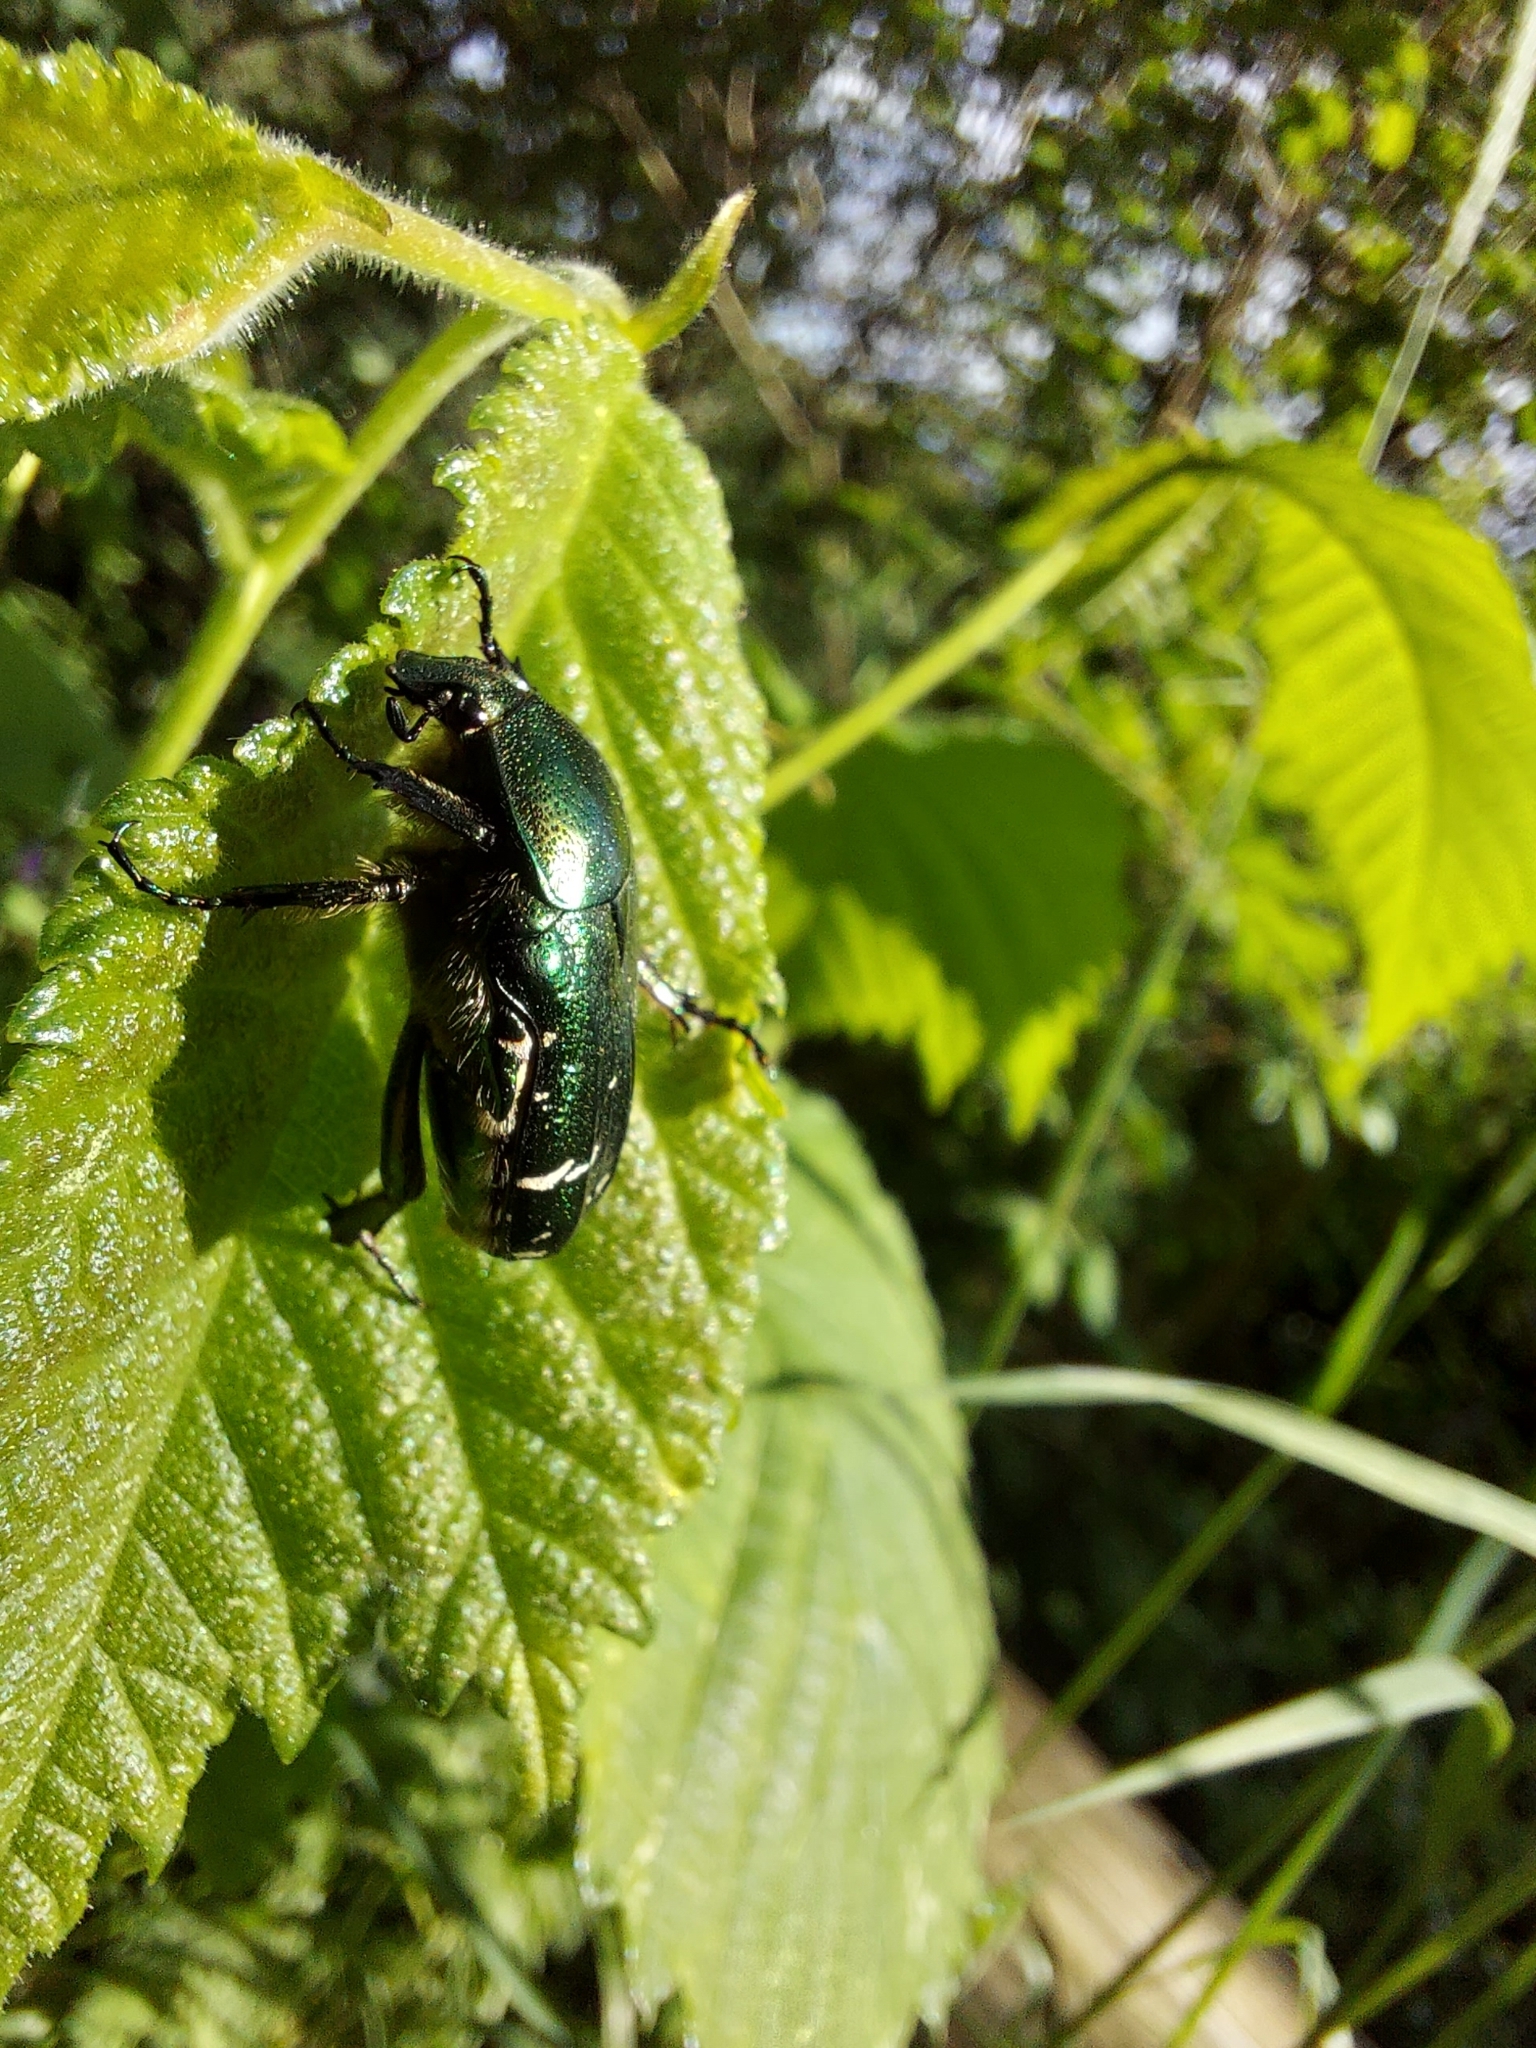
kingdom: Animalia
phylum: Arthropoda
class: Insecta
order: Coleoptera
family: Scarabaeidae
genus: Cetonia
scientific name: Cetonia aurata
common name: Rose chafer
